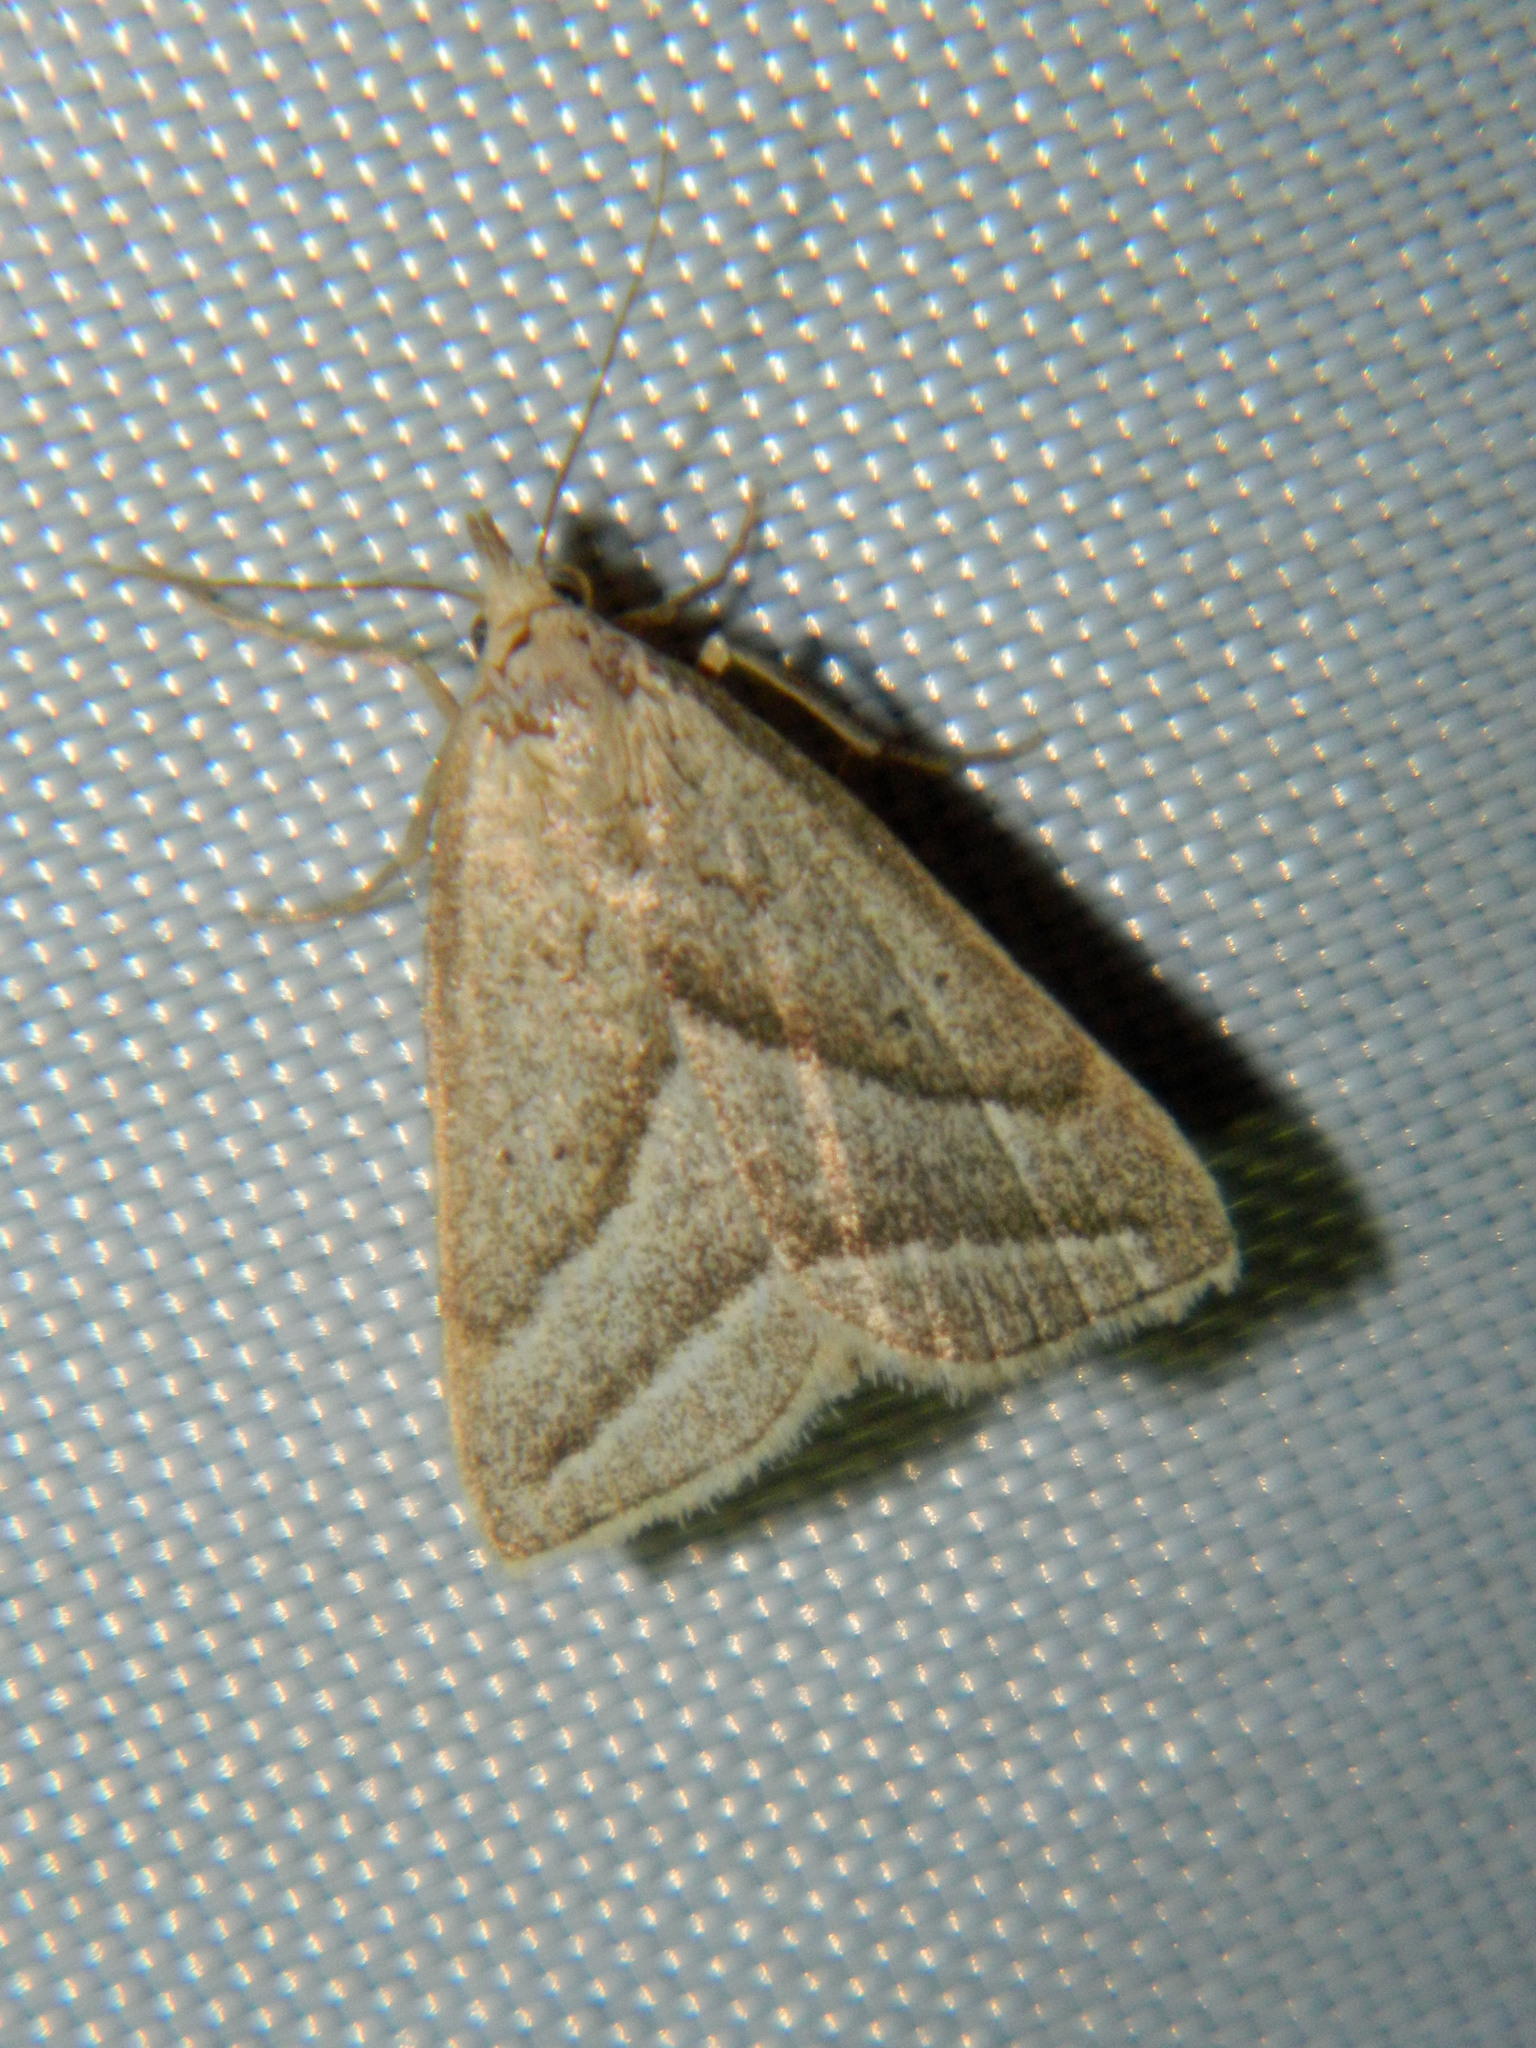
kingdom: Animalia
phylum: Arthropoda
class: Insecta
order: Lepidoptera
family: Erebidae
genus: Macrochilo
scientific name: Macrochilo absorptalis
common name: Slant-lined owlet
